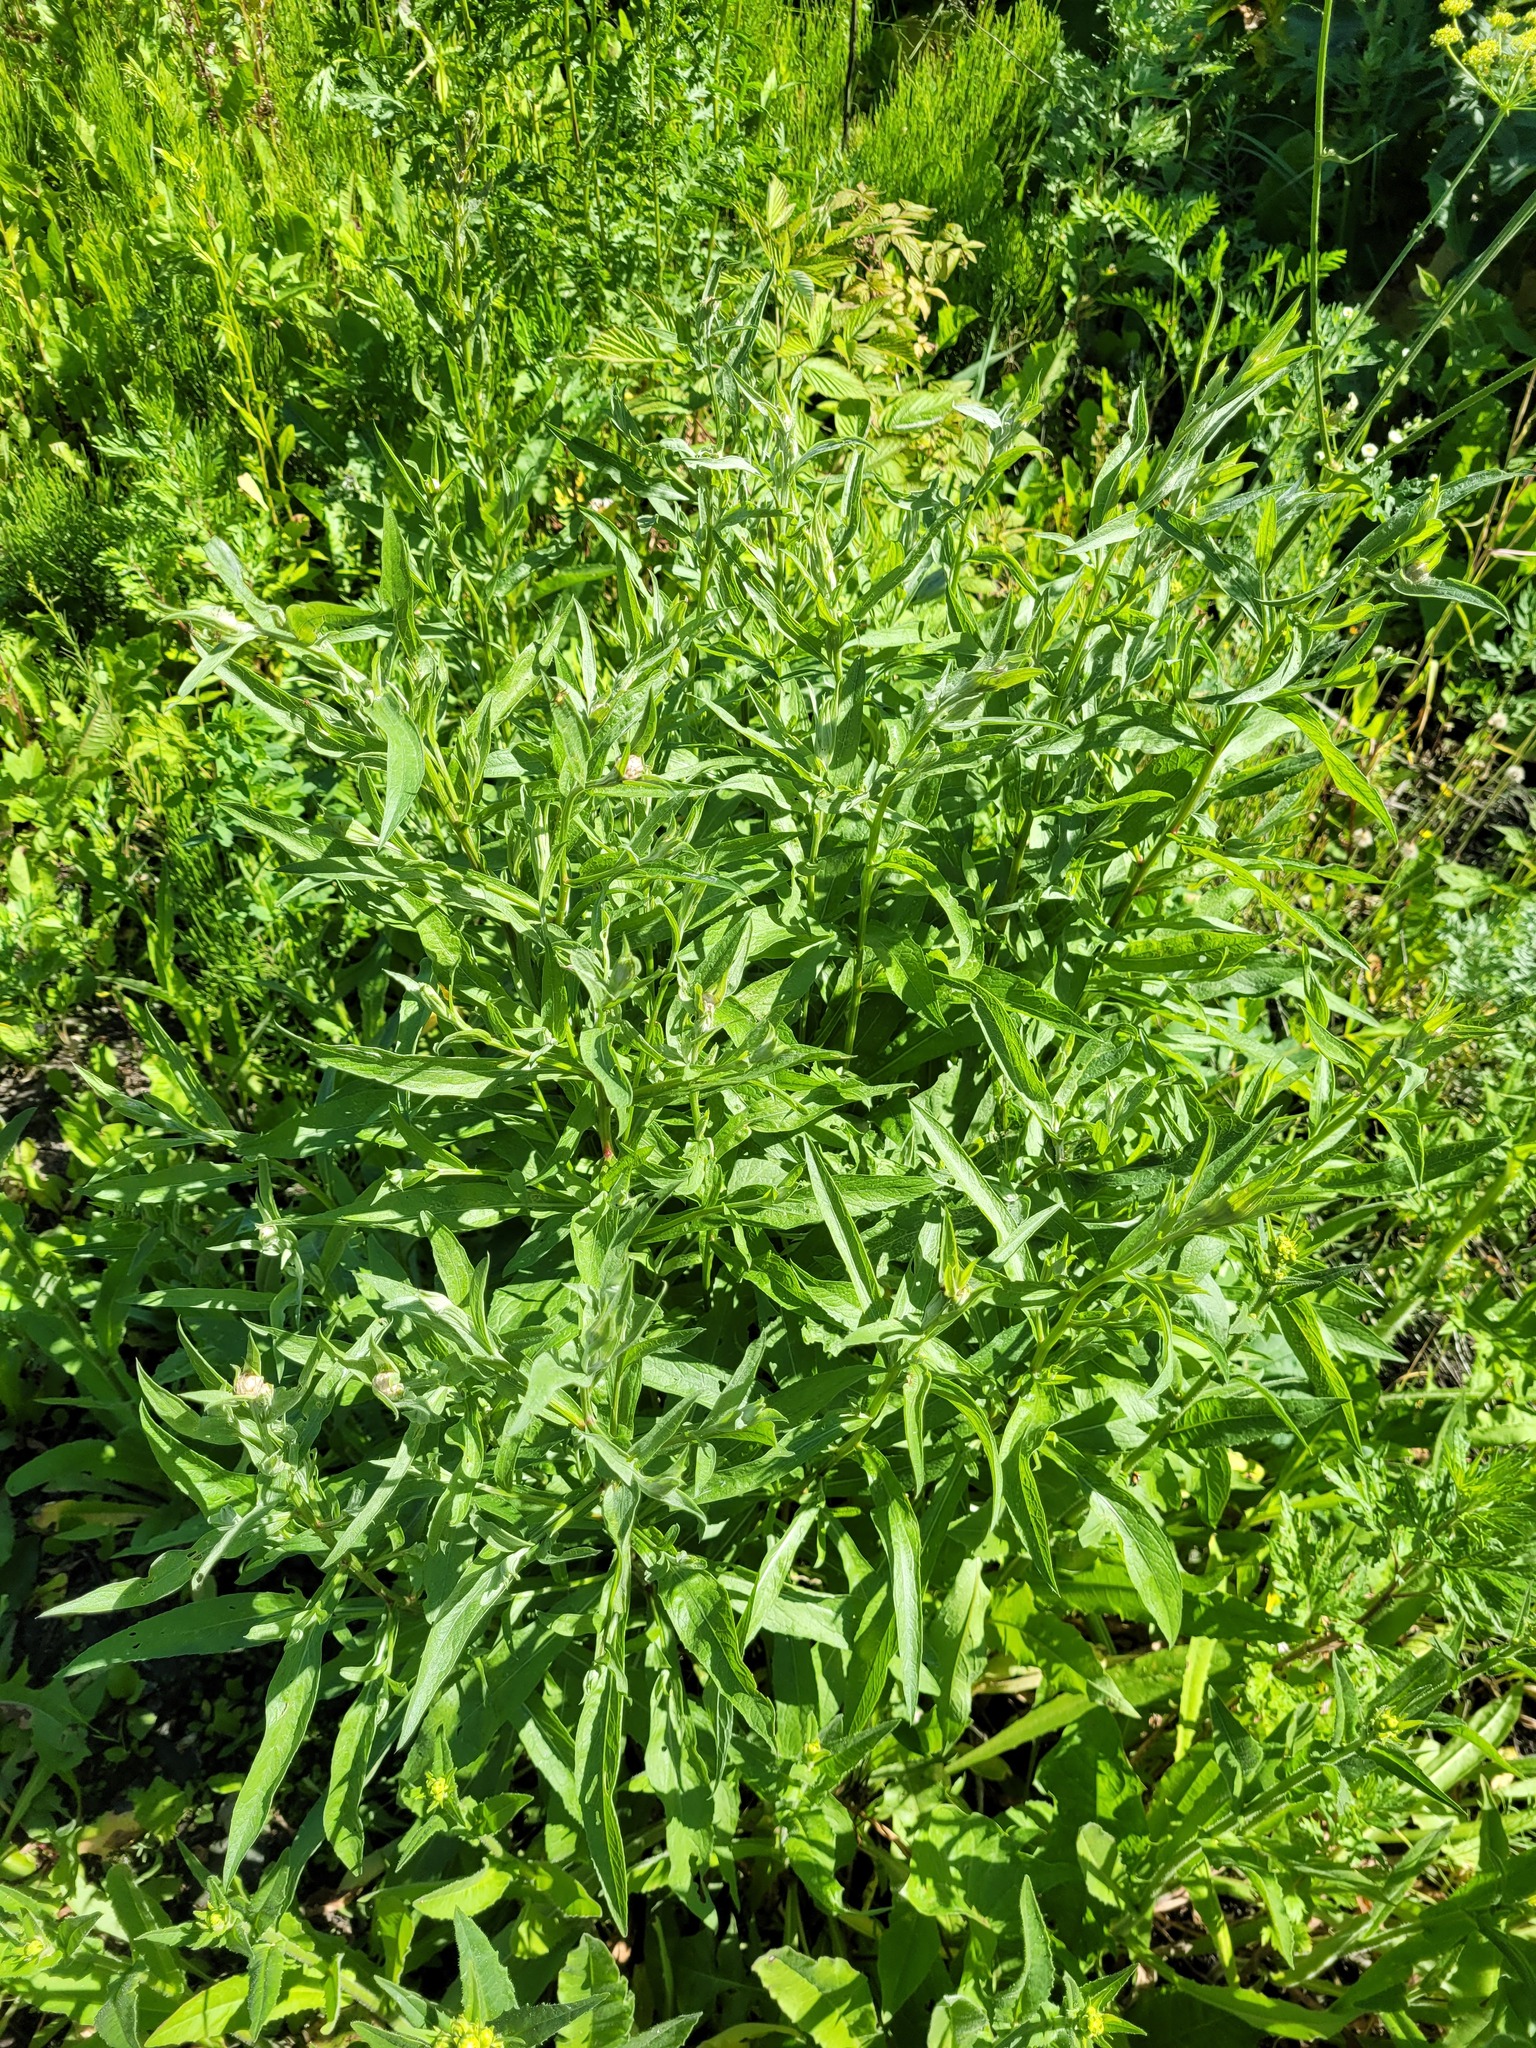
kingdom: Plantae
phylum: Tracheophyta
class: Magnoliopsida
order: Asterales
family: Asteraceae
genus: Centaurea
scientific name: Centaurea jacea
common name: Brown knapweed
